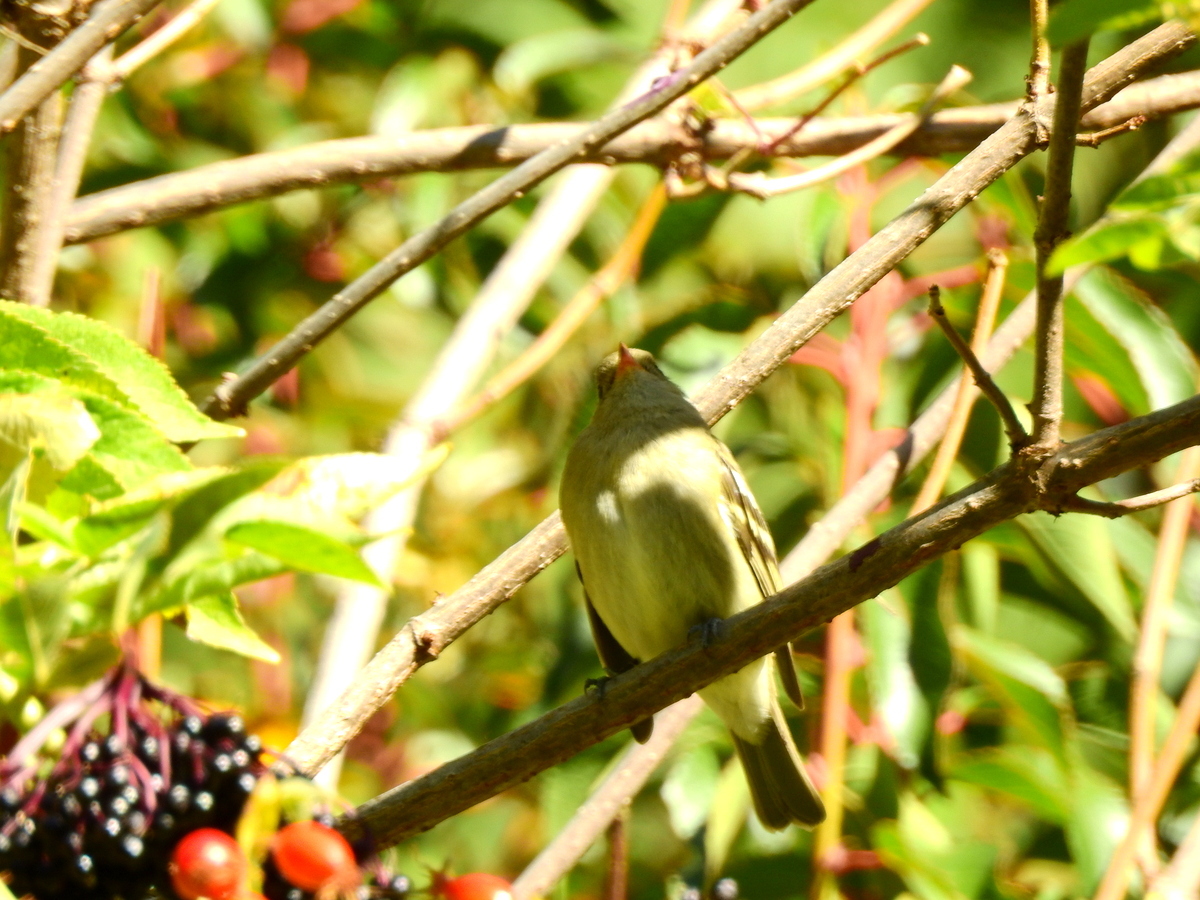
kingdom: Animalia
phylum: Chordata
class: Aves
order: Passeriformes
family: Tyrannidae
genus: Elaenia
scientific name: Elaenia albiceps
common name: White-crested elaenia
